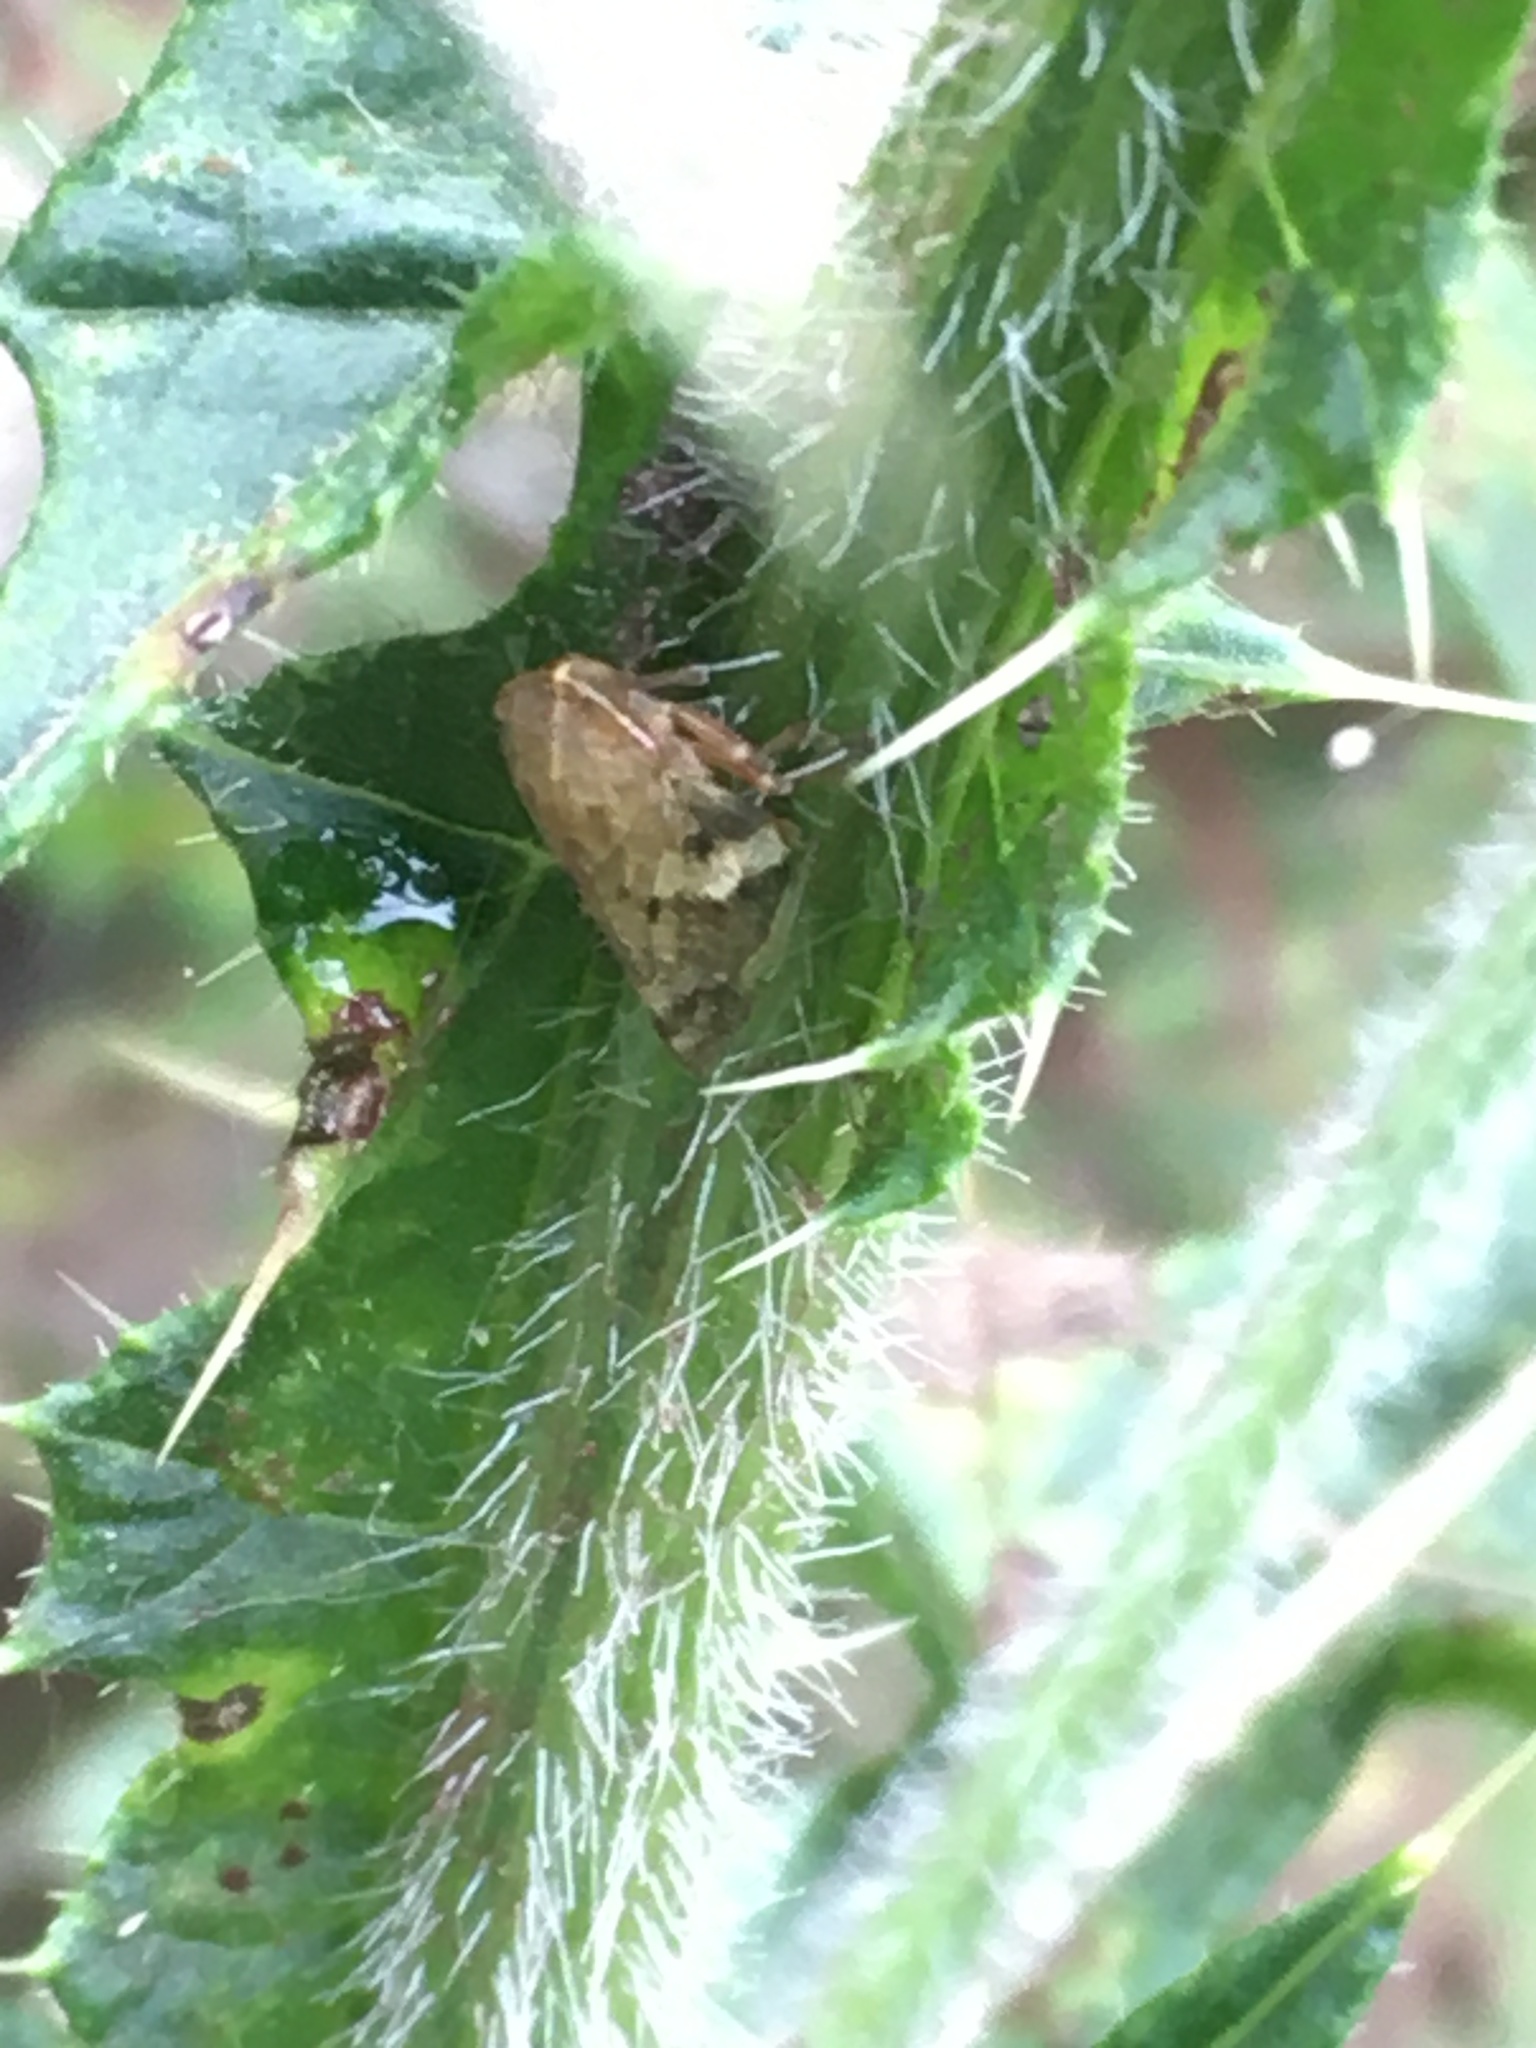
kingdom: Animalia
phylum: Arthropoda
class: Insecta
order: Hemiptera
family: Aphrophoridae
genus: Aphrophora
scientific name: Aphrophora alni
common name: European alder spittlebug
